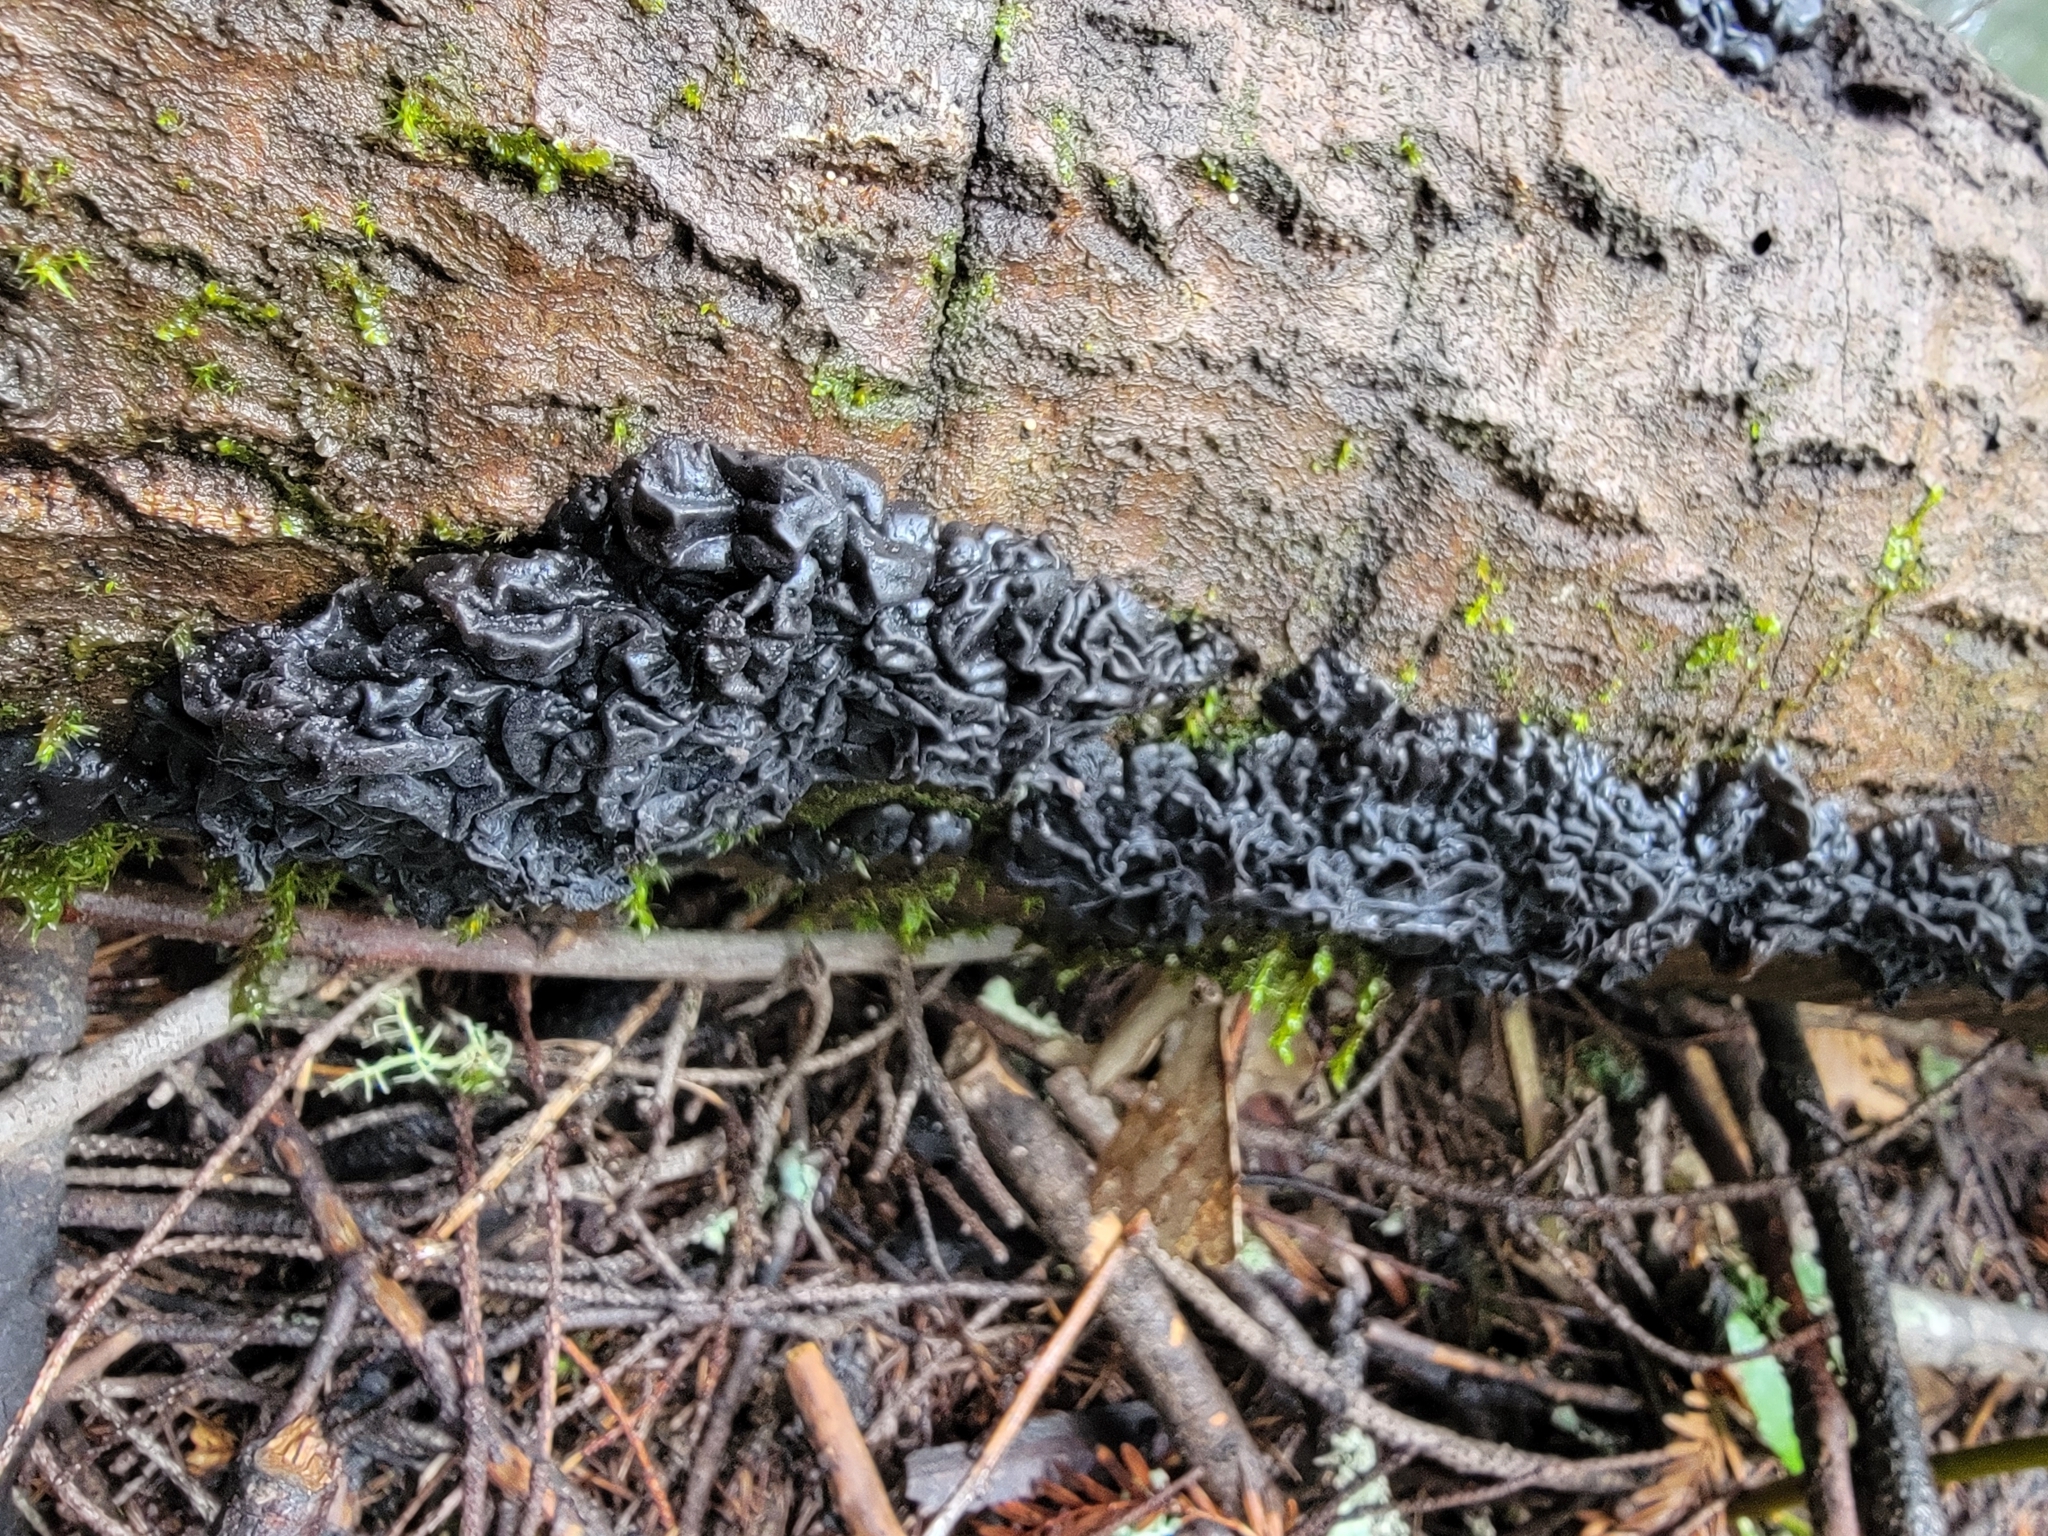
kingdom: Fungi
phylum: Basidiomycota
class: Agaricomycetes
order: Auriculariales
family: Auriculariaceae
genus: Exidia
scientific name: Exidia glandulosa
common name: Witches' butter
